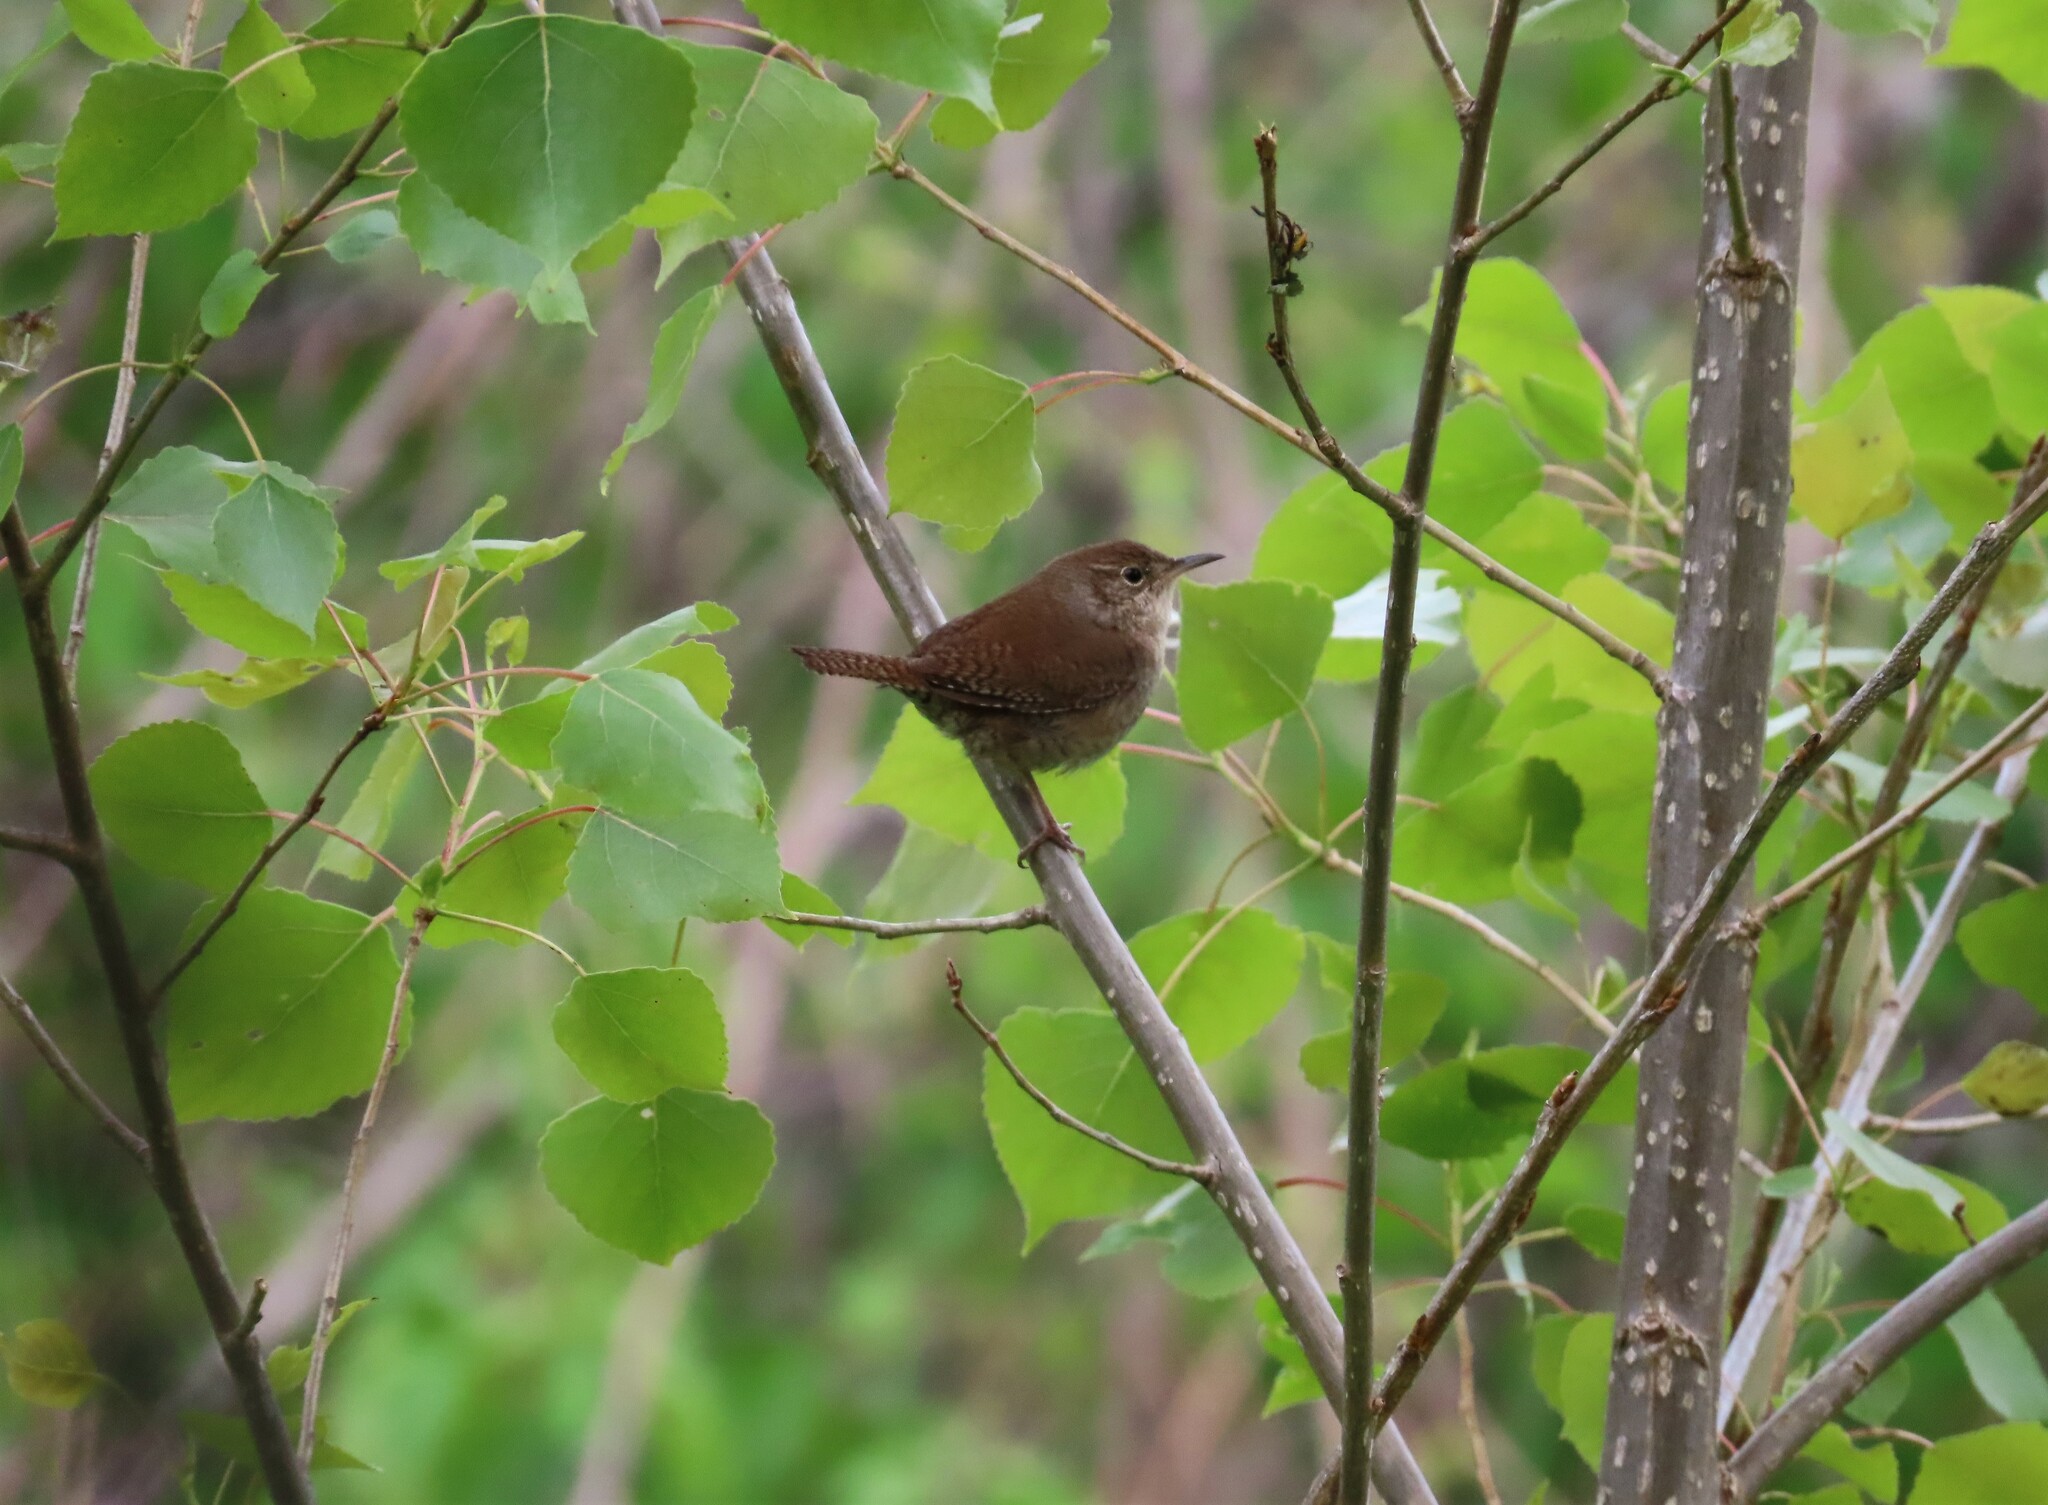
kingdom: Animalia
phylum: Chordata
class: Aves
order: Passeriformes
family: Troglodytidae
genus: Troglodytes
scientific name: Troglodytes aedon
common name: House wren
